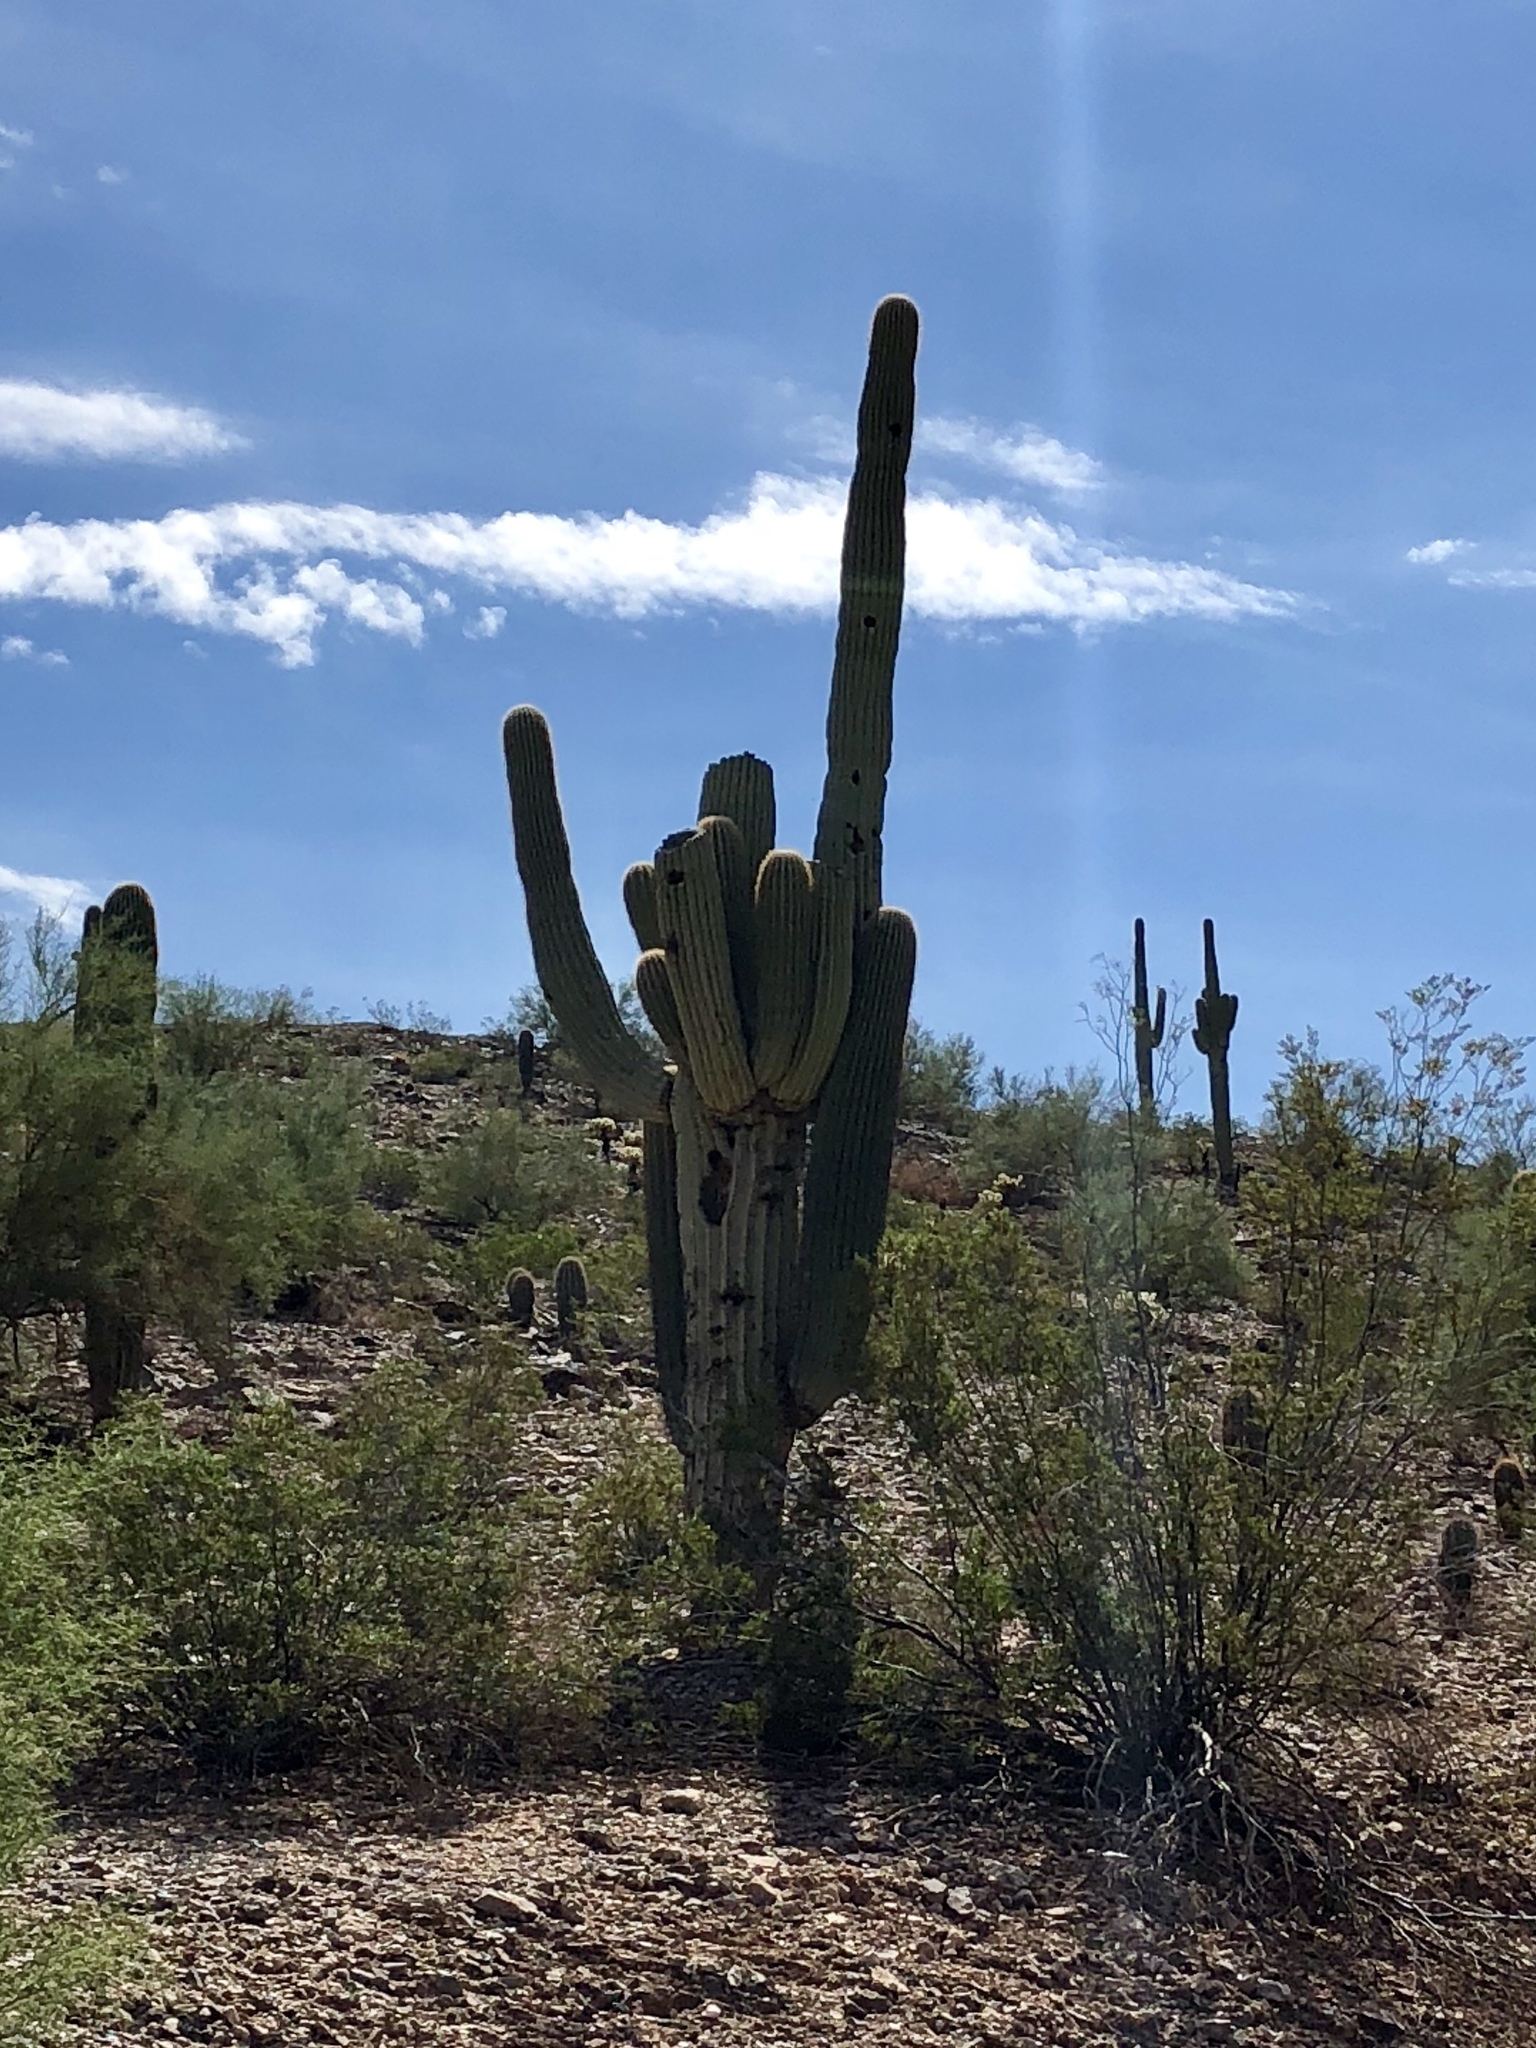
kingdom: Plantae
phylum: Tracheophyta
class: Magnoliopsida
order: Caryophyllales
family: Cactaceae
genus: Carnegiea
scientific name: Carnegiea gigantea
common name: Saguaro
